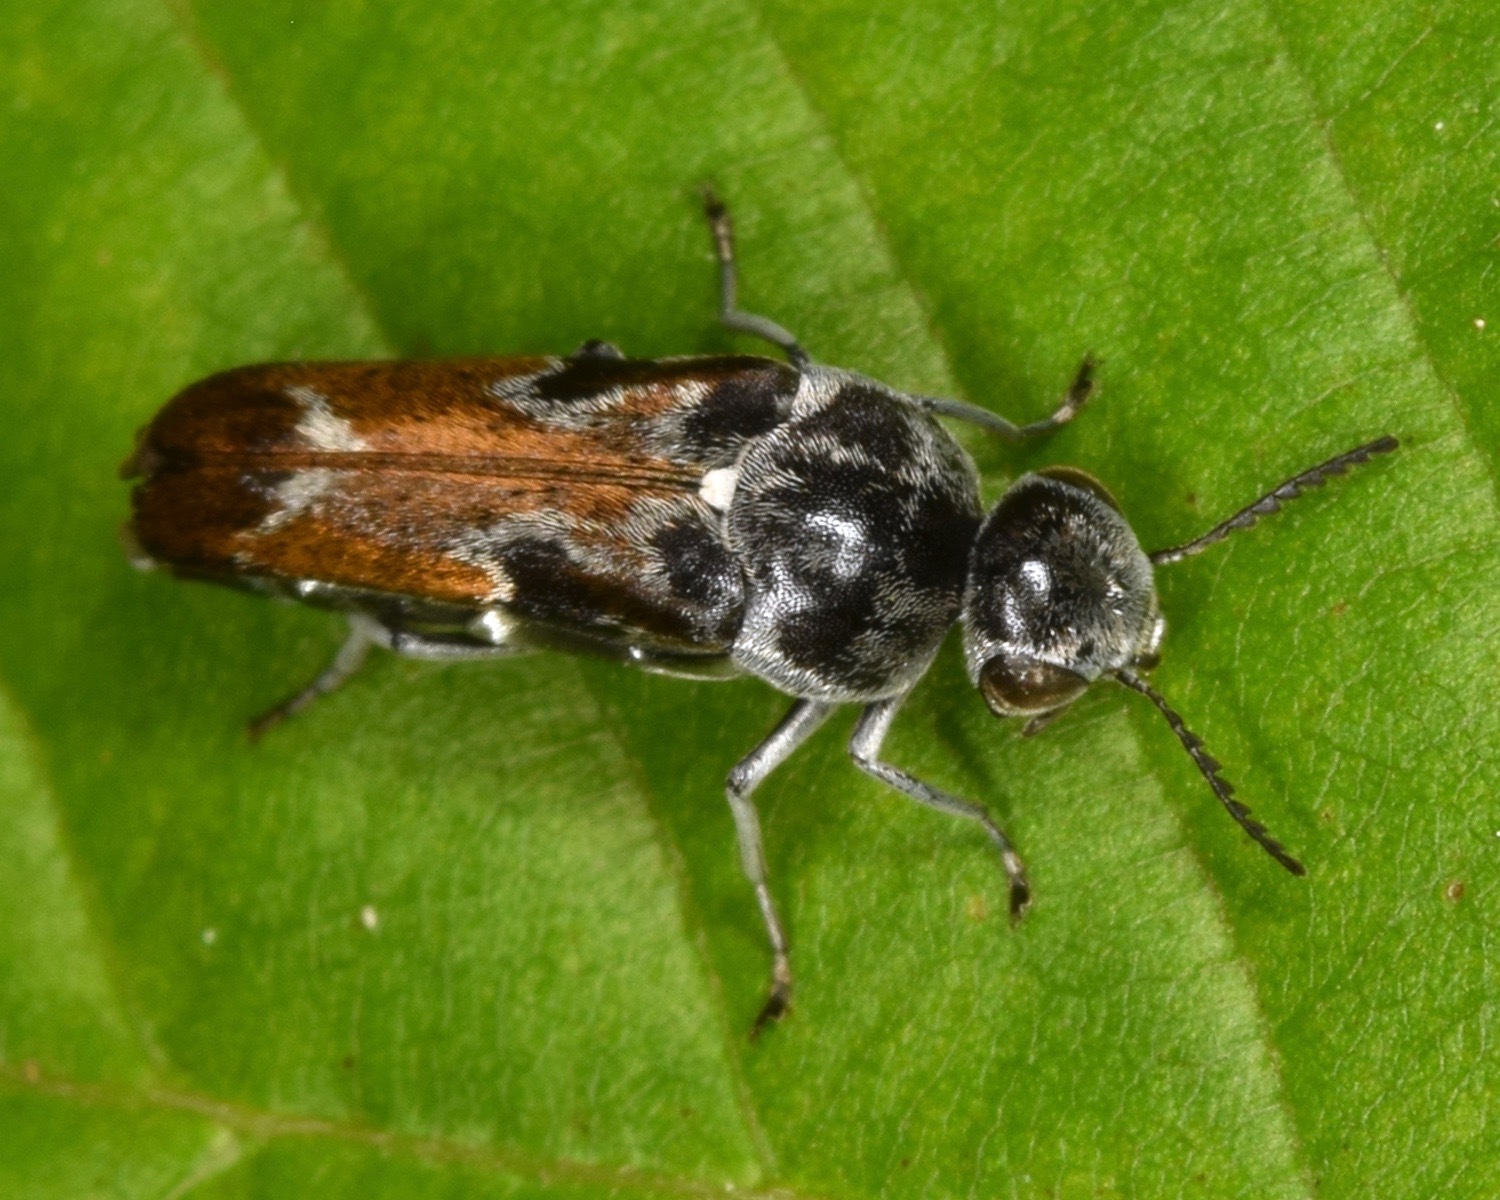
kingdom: Animalia
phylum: Arthropoda
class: Insecta
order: Coleoptera
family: Mordellidae
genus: Glipa
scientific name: Glipa hilaris
